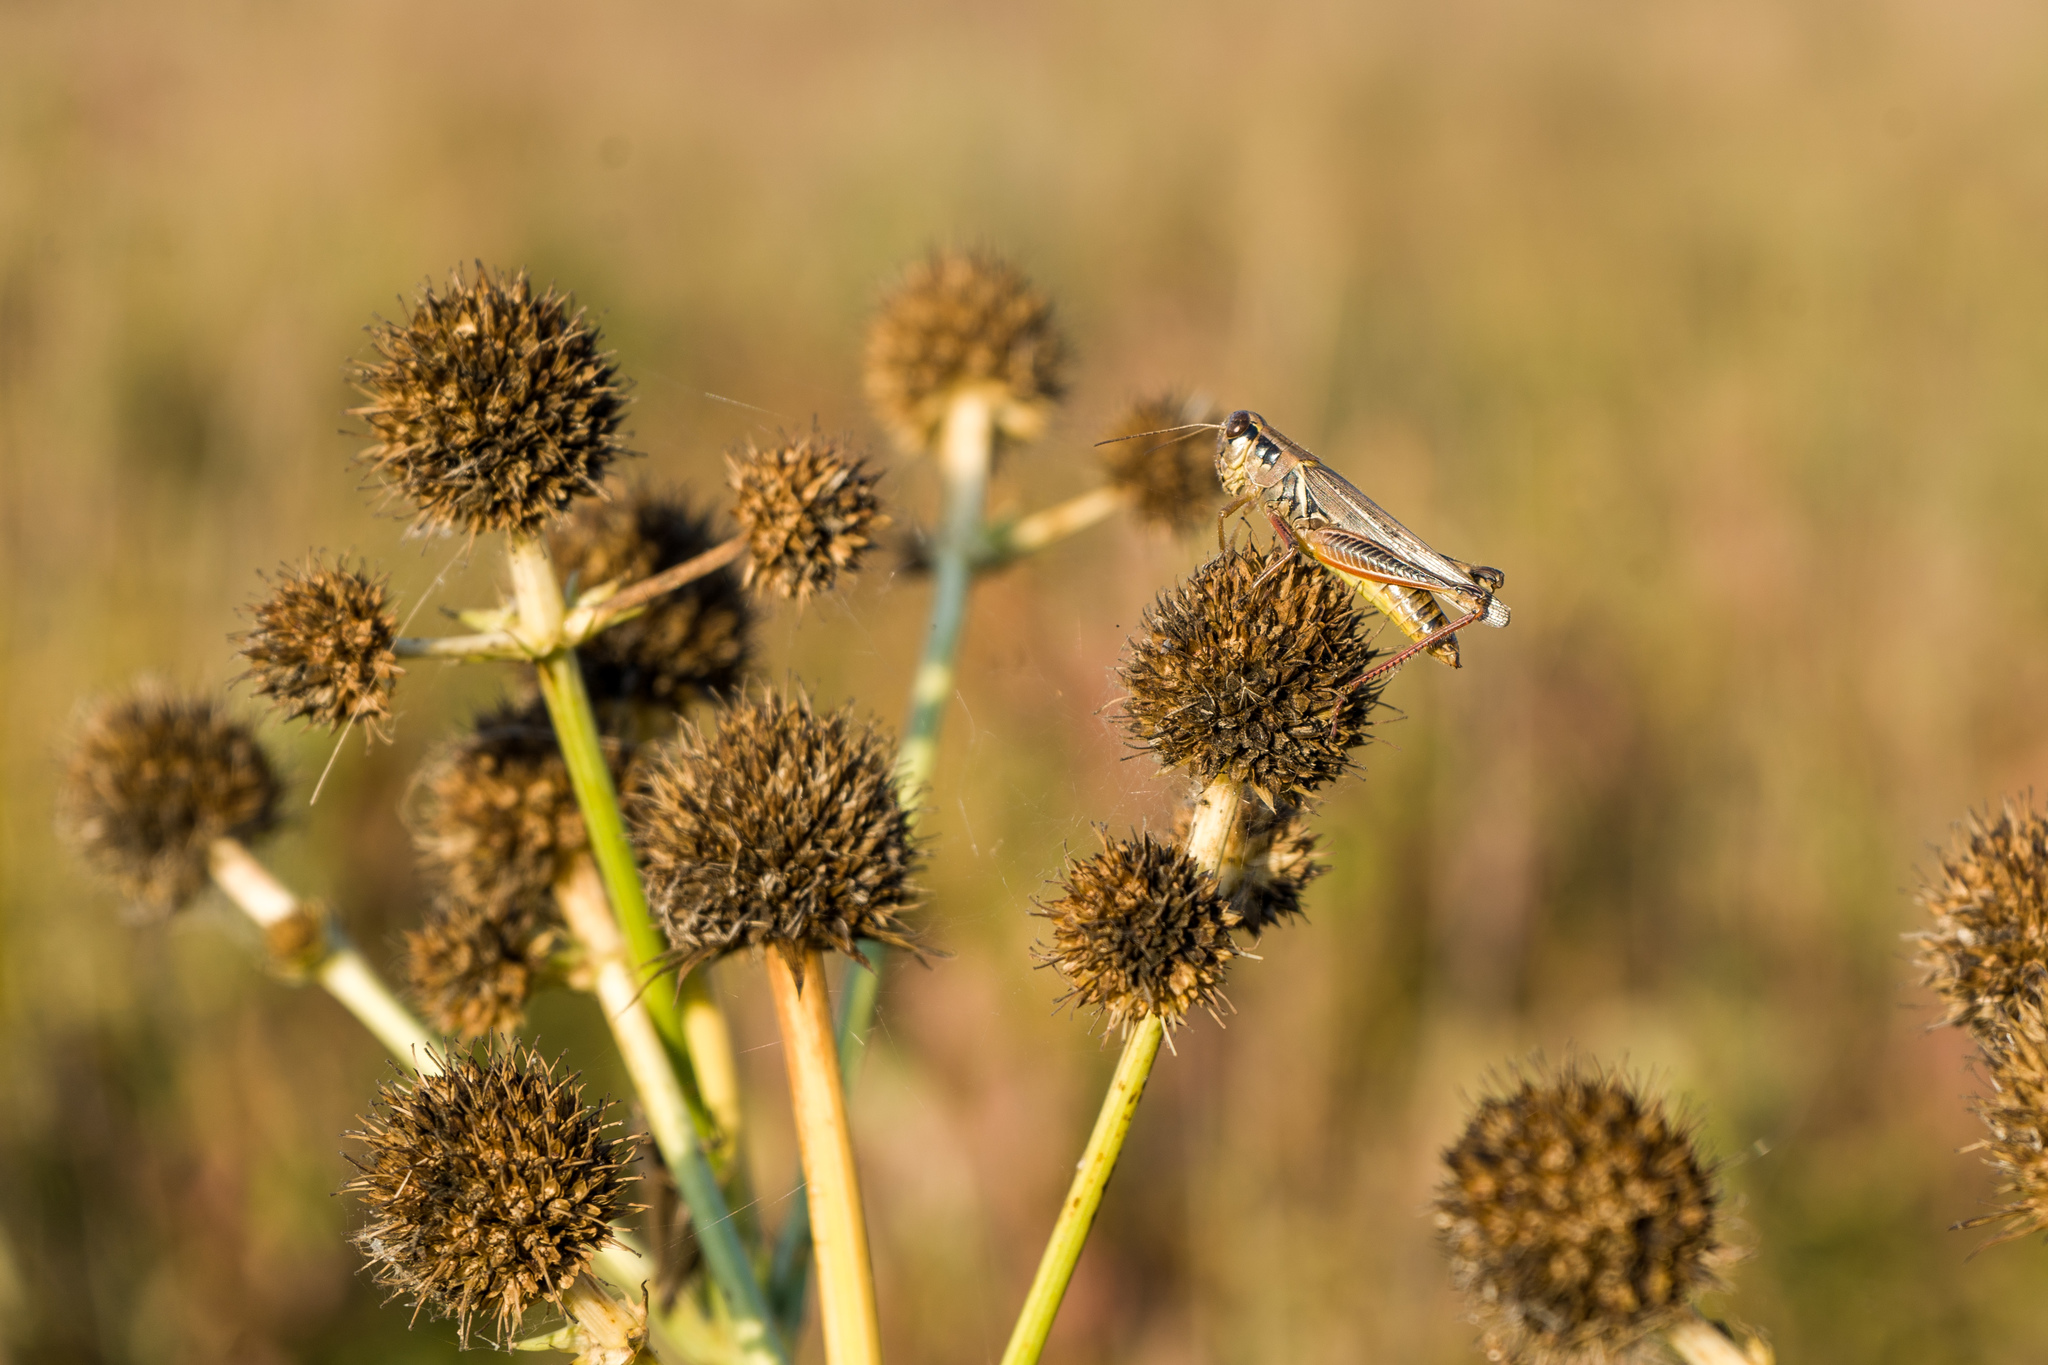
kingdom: Animalia
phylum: Arthropoda
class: Insecta
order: Orthoptera
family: Acrididae
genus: Melanoplus
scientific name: Melanoplus femurrubrum
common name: Red-legged grasshopper
